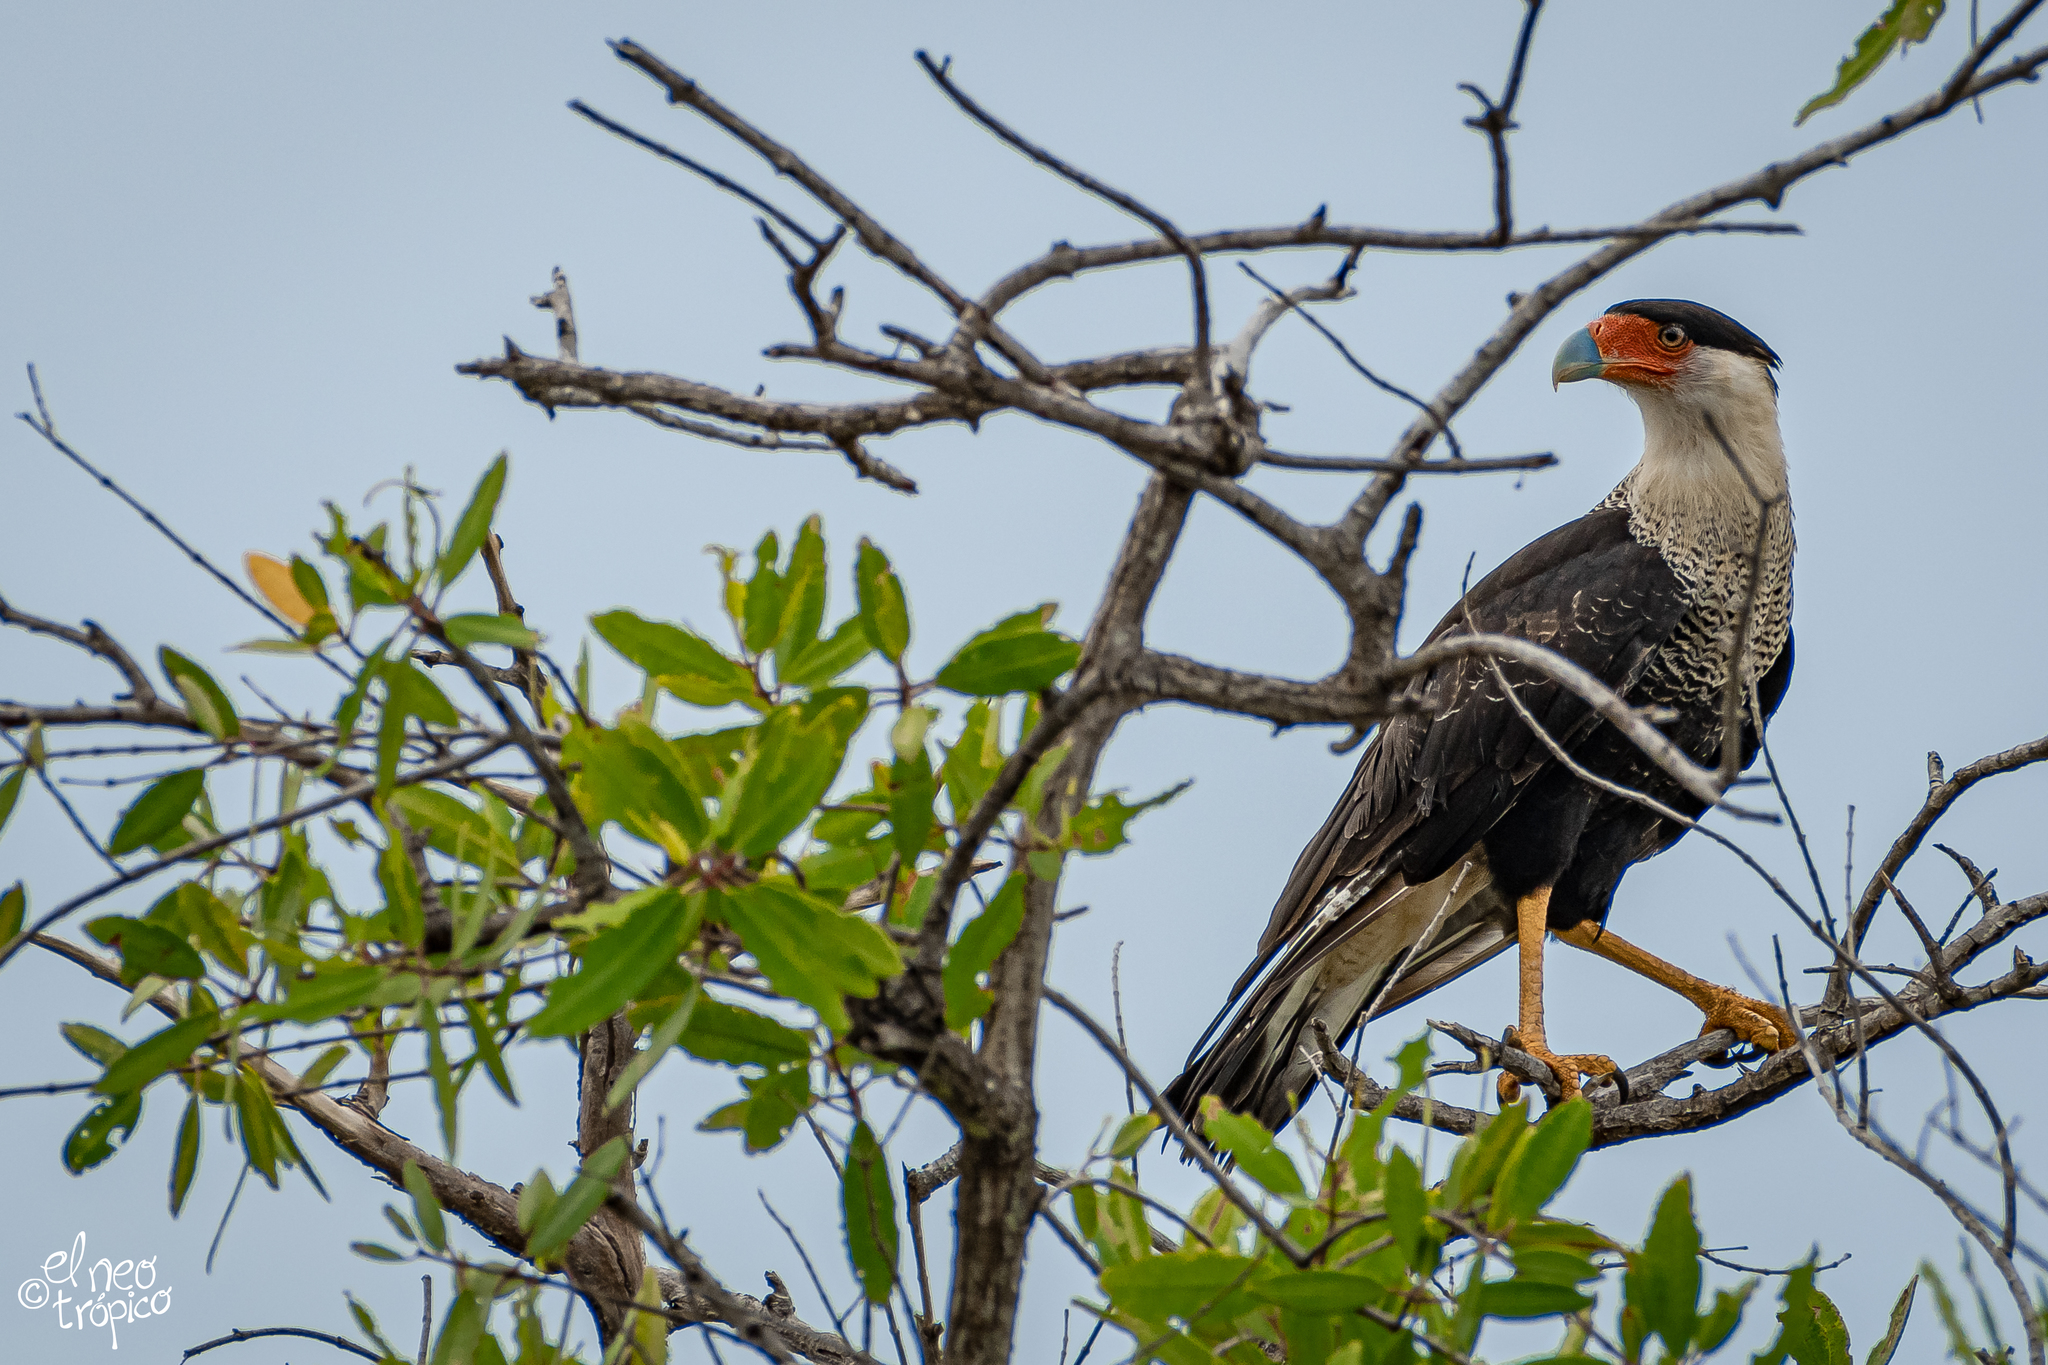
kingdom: Animalia
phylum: Chordata
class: Aves
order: Falconiformes
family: Falconidae
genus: Caracara
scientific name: Caracara plancus
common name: Southern caracara
